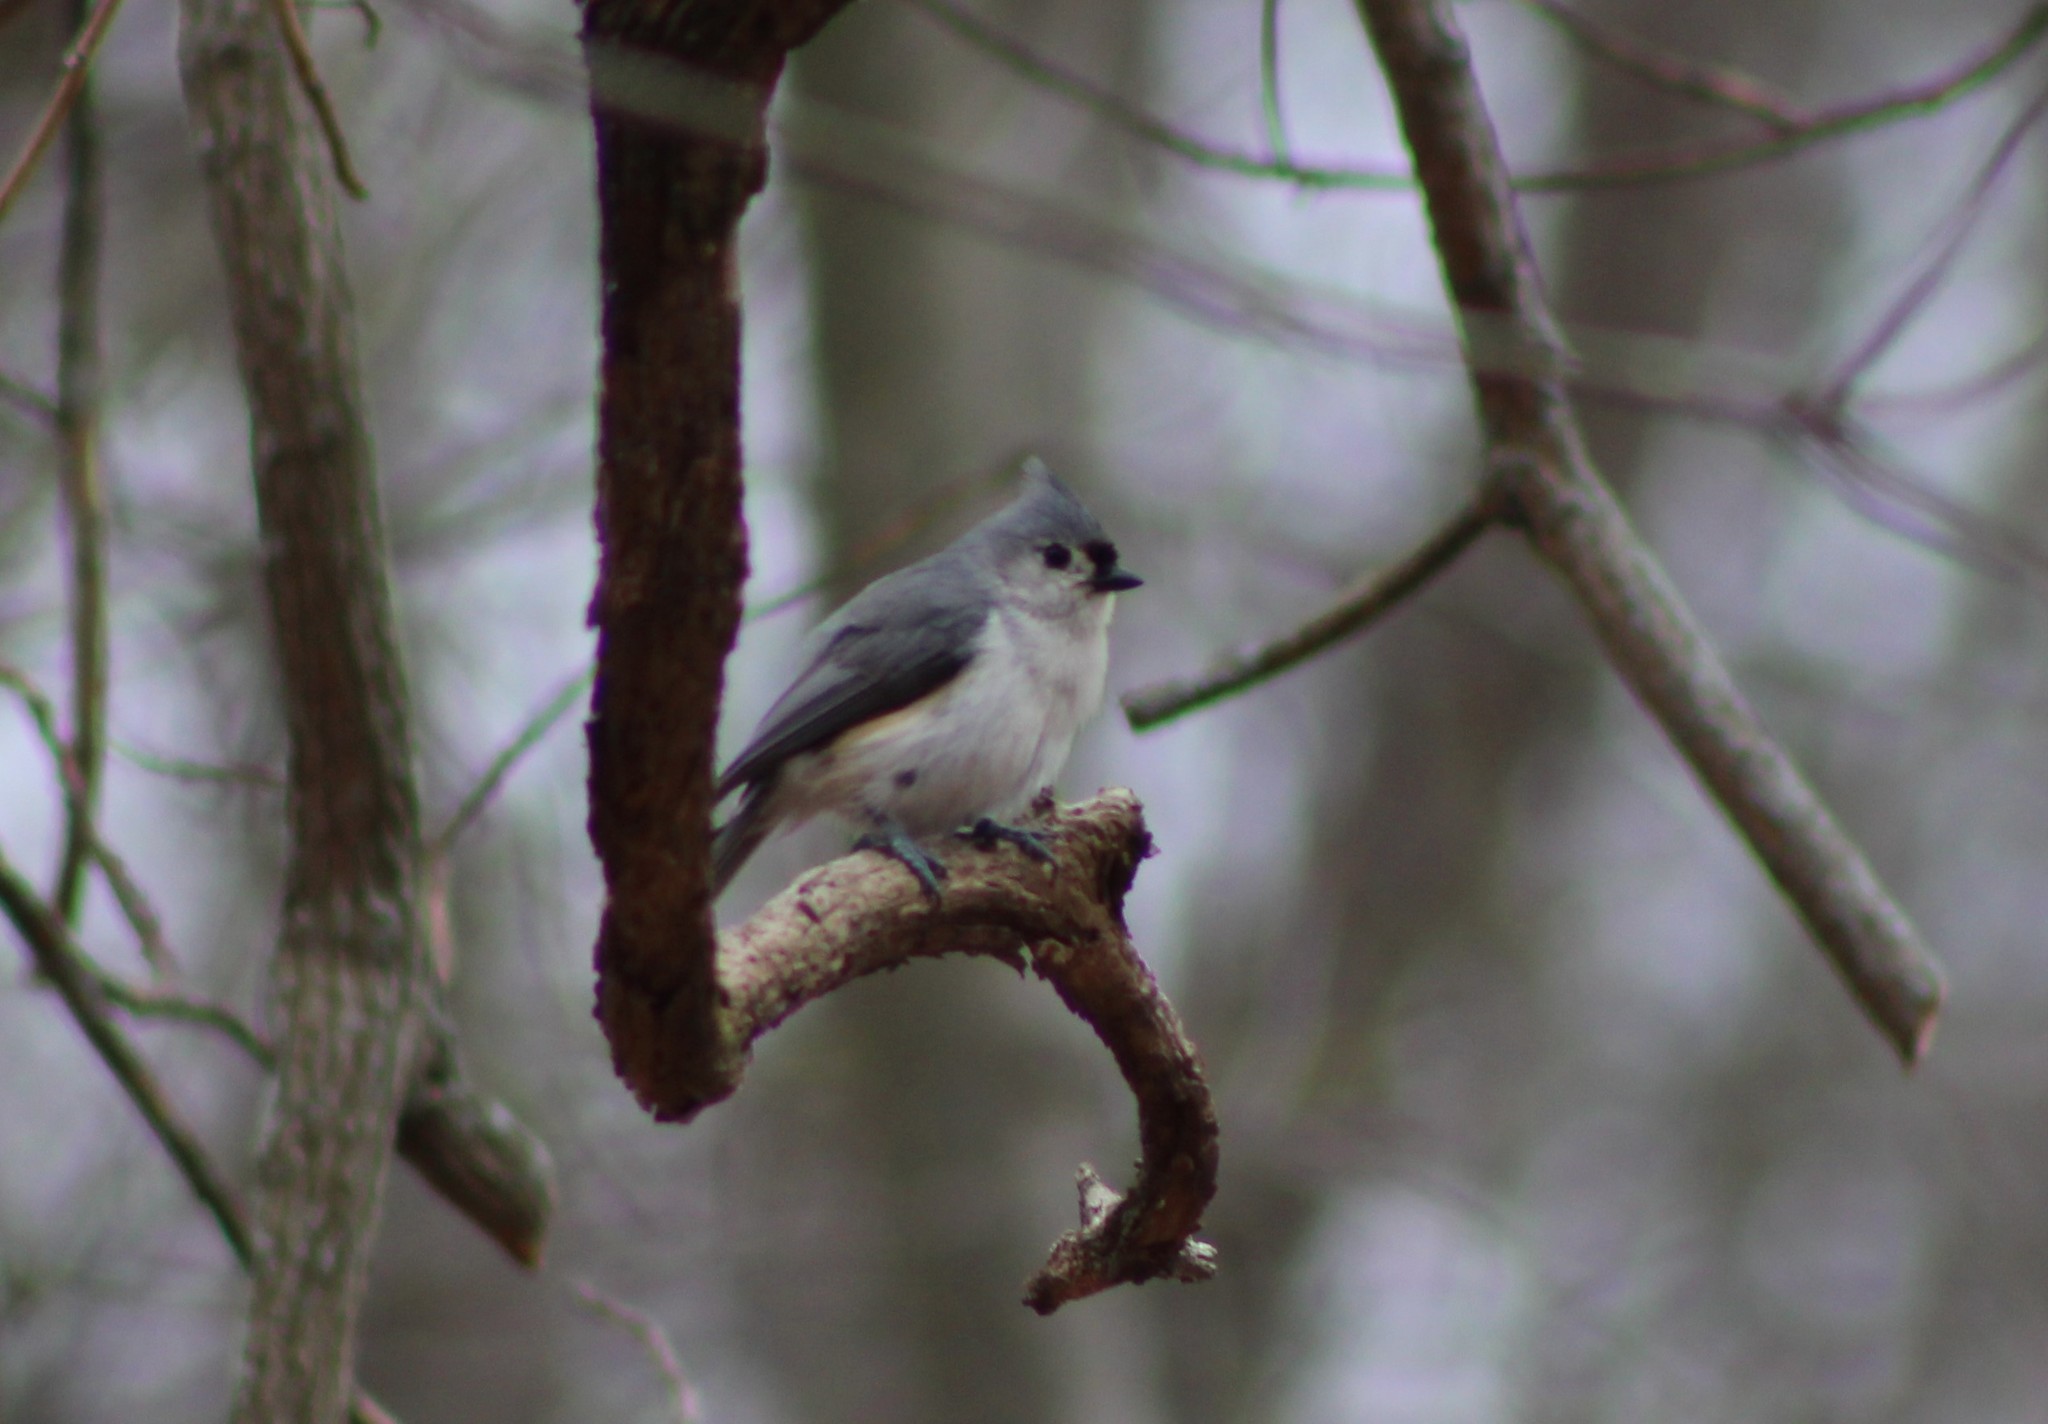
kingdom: Animalia
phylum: Chordata
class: Aves
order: Passeriformes
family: Paridae
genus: Baeolophus
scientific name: Baeolophus bicolor
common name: Tufted titmouse
